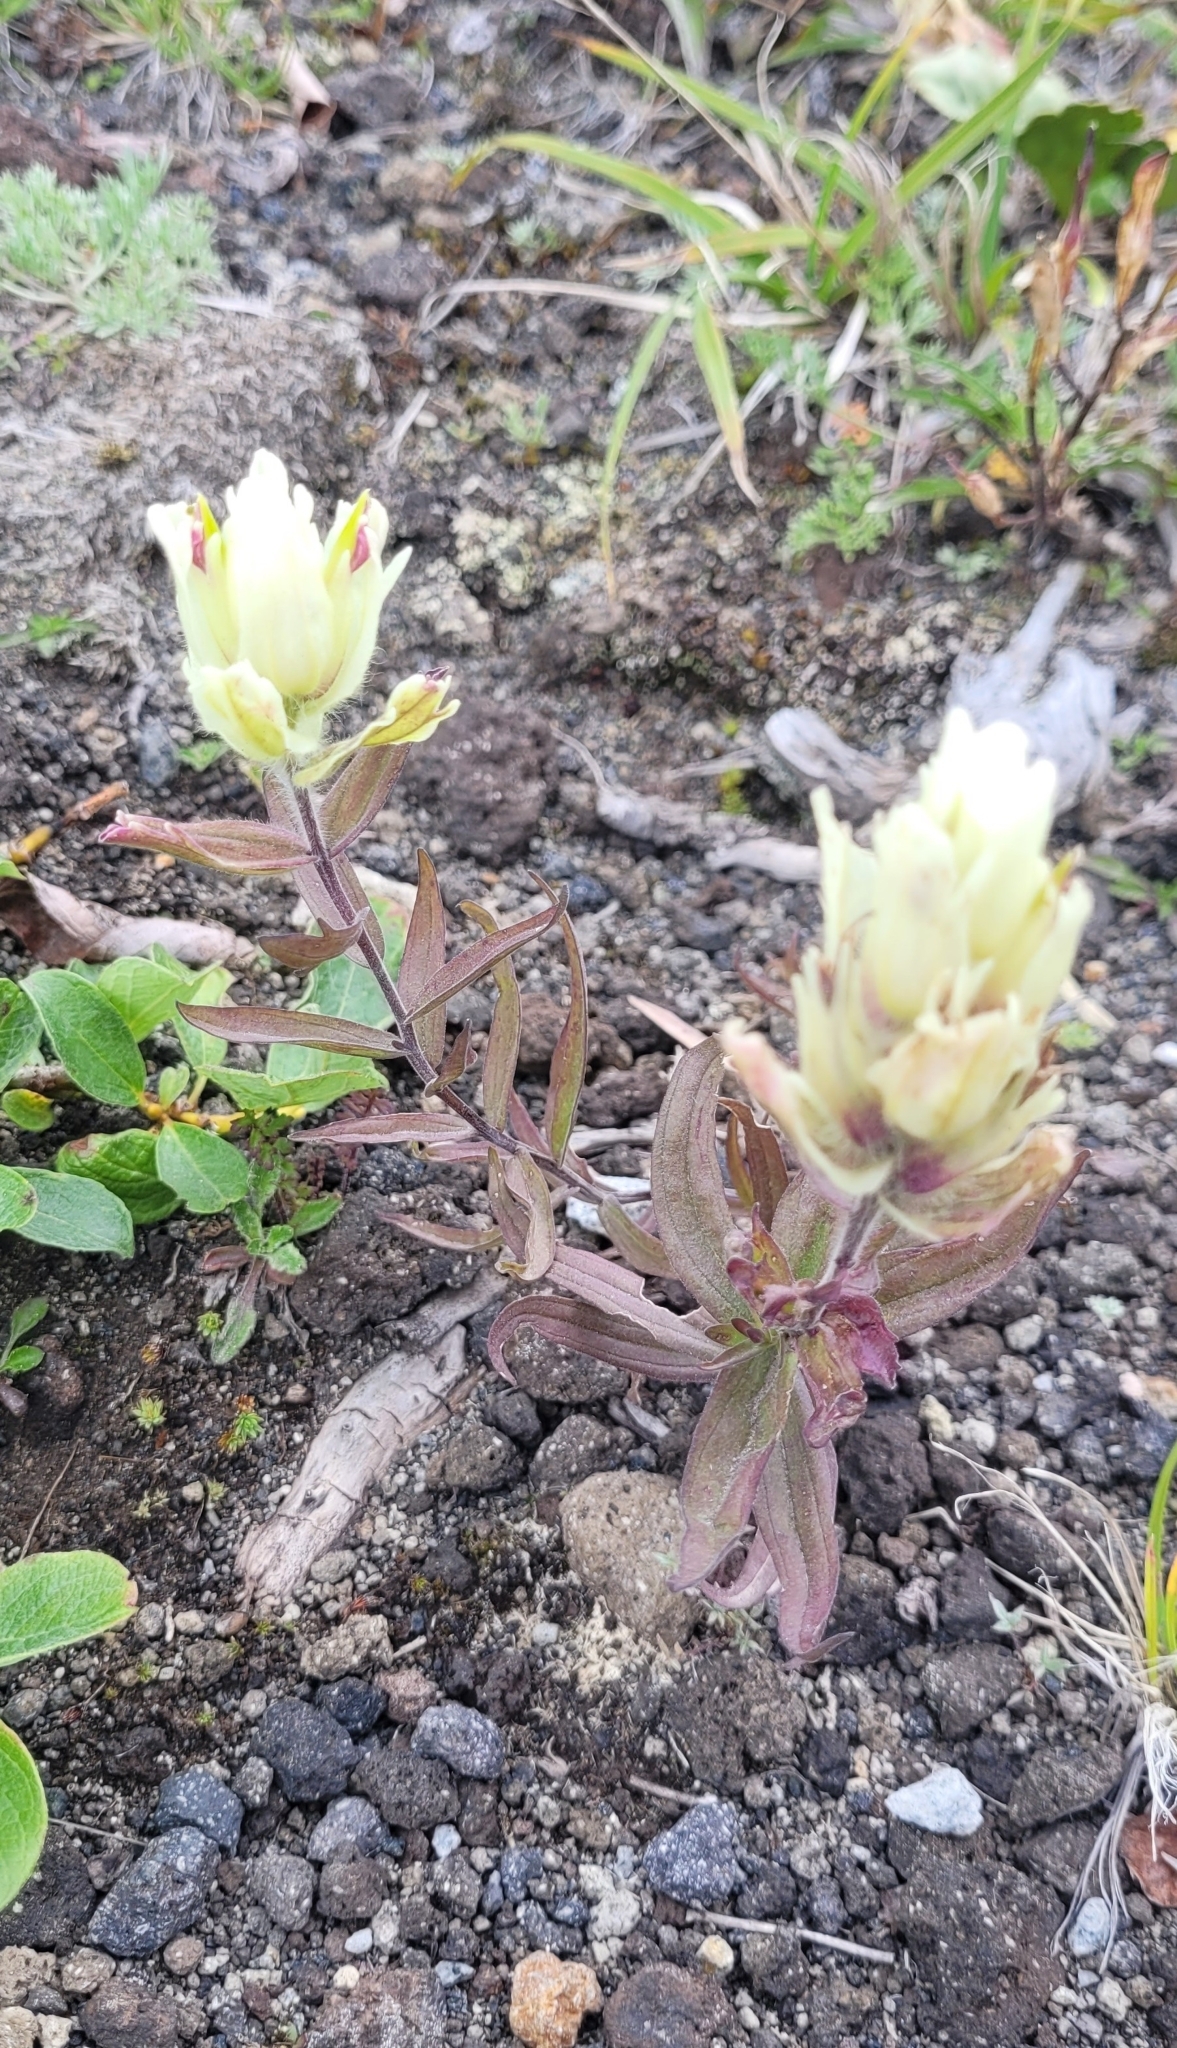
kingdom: Plantae
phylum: Tracheophyta
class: Magnoliopsida
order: Lamiales
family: Orobanchaceae
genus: Castilleja
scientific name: Castilleja pallida
